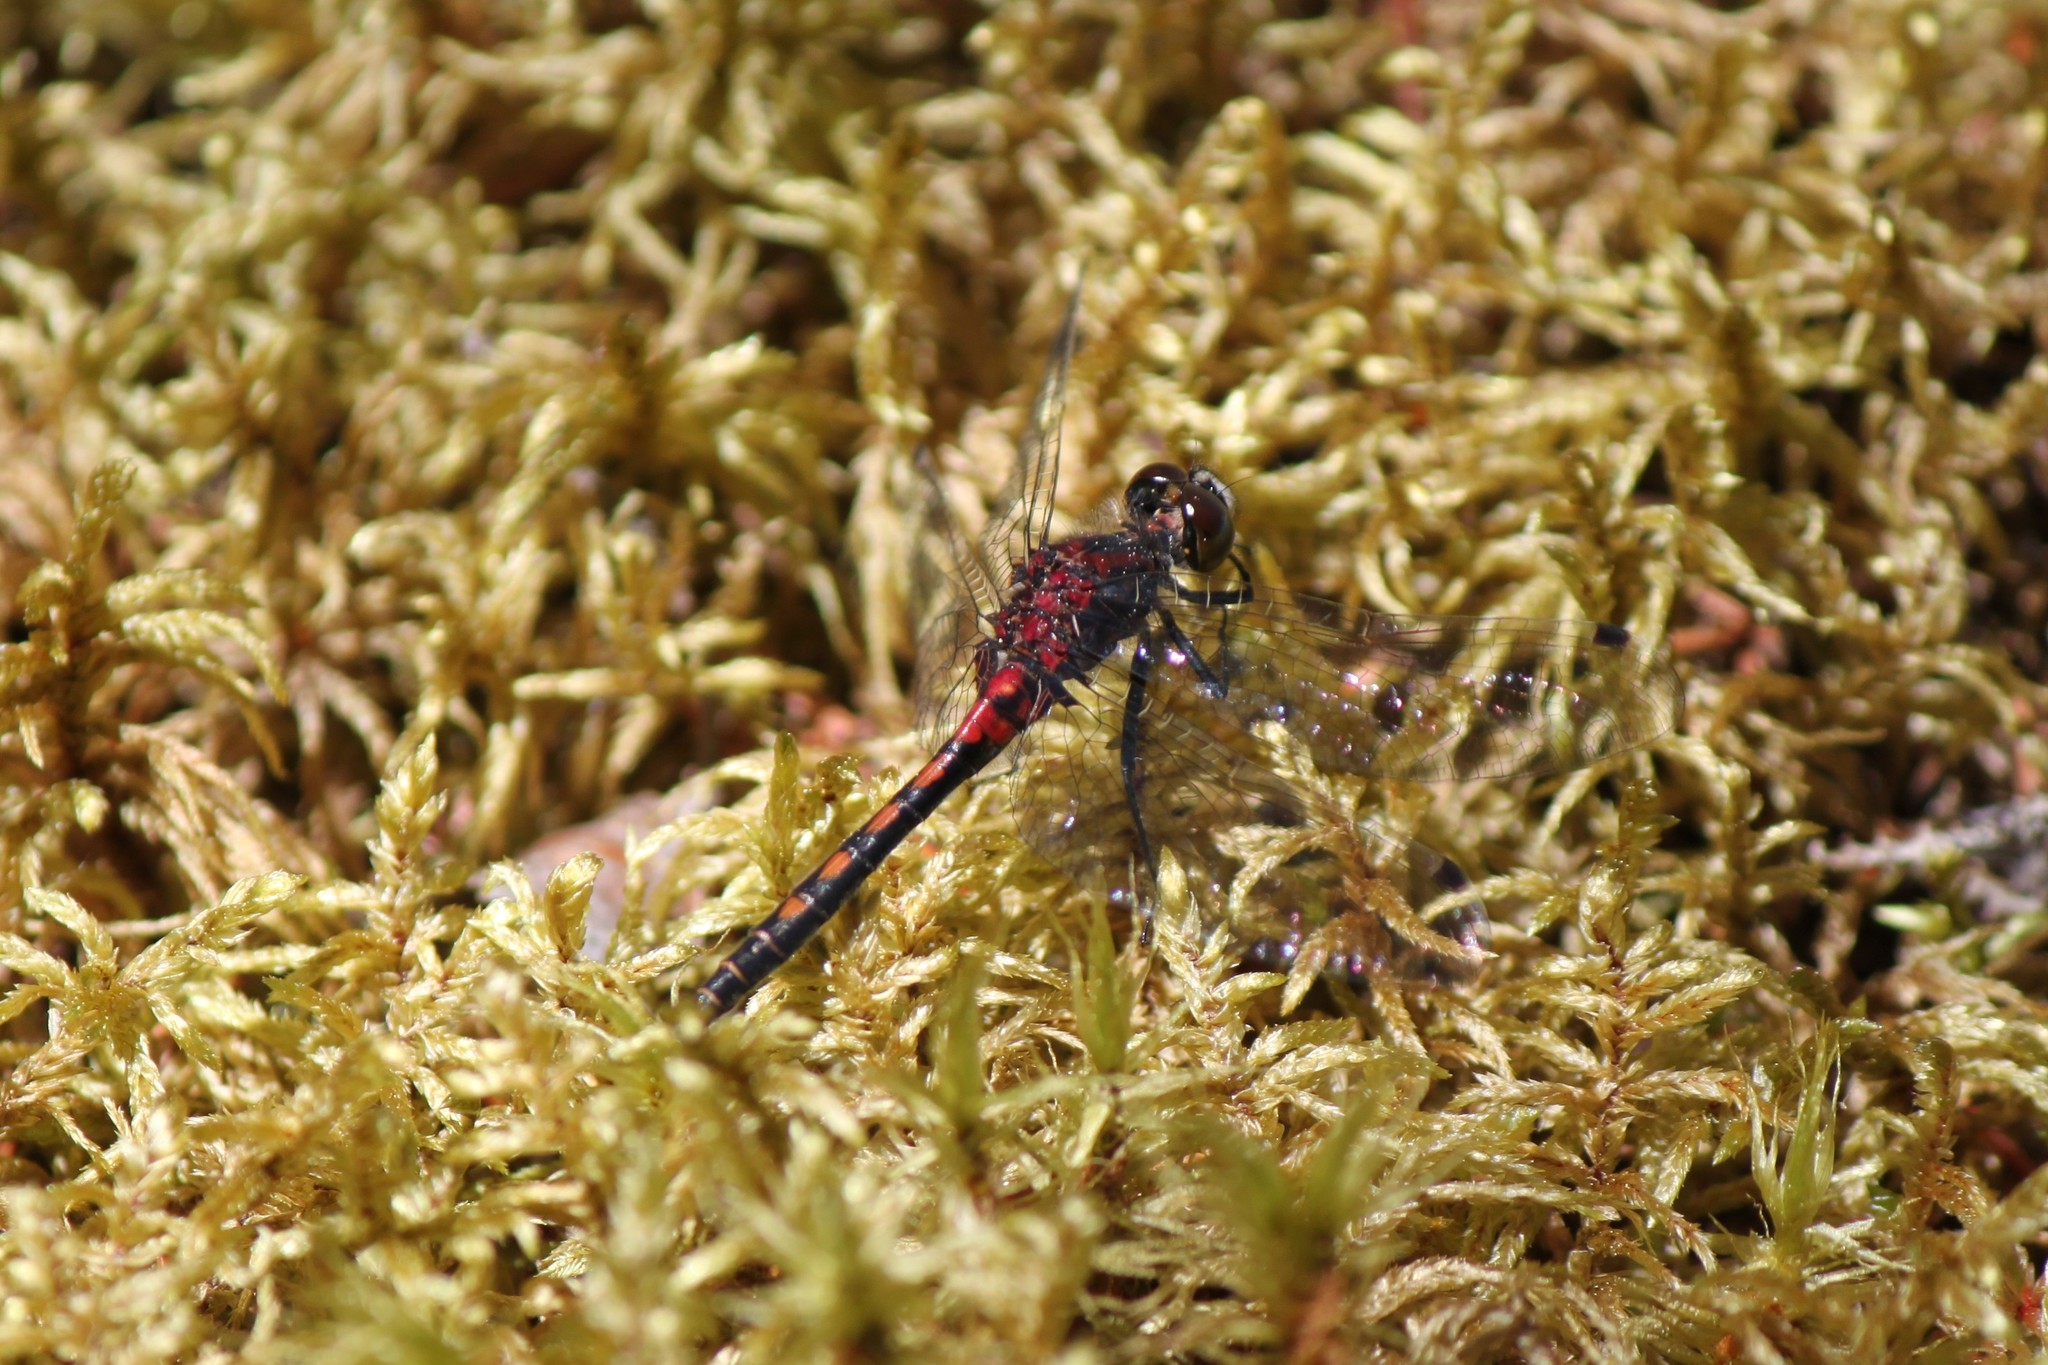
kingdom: Animalia
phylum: Arthropoda
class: Insecta
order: Odonata
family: Libellulidae
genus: Leucorrhinia
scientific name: Leucorrhinia hudsonica
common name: Hudsonian whiteface
